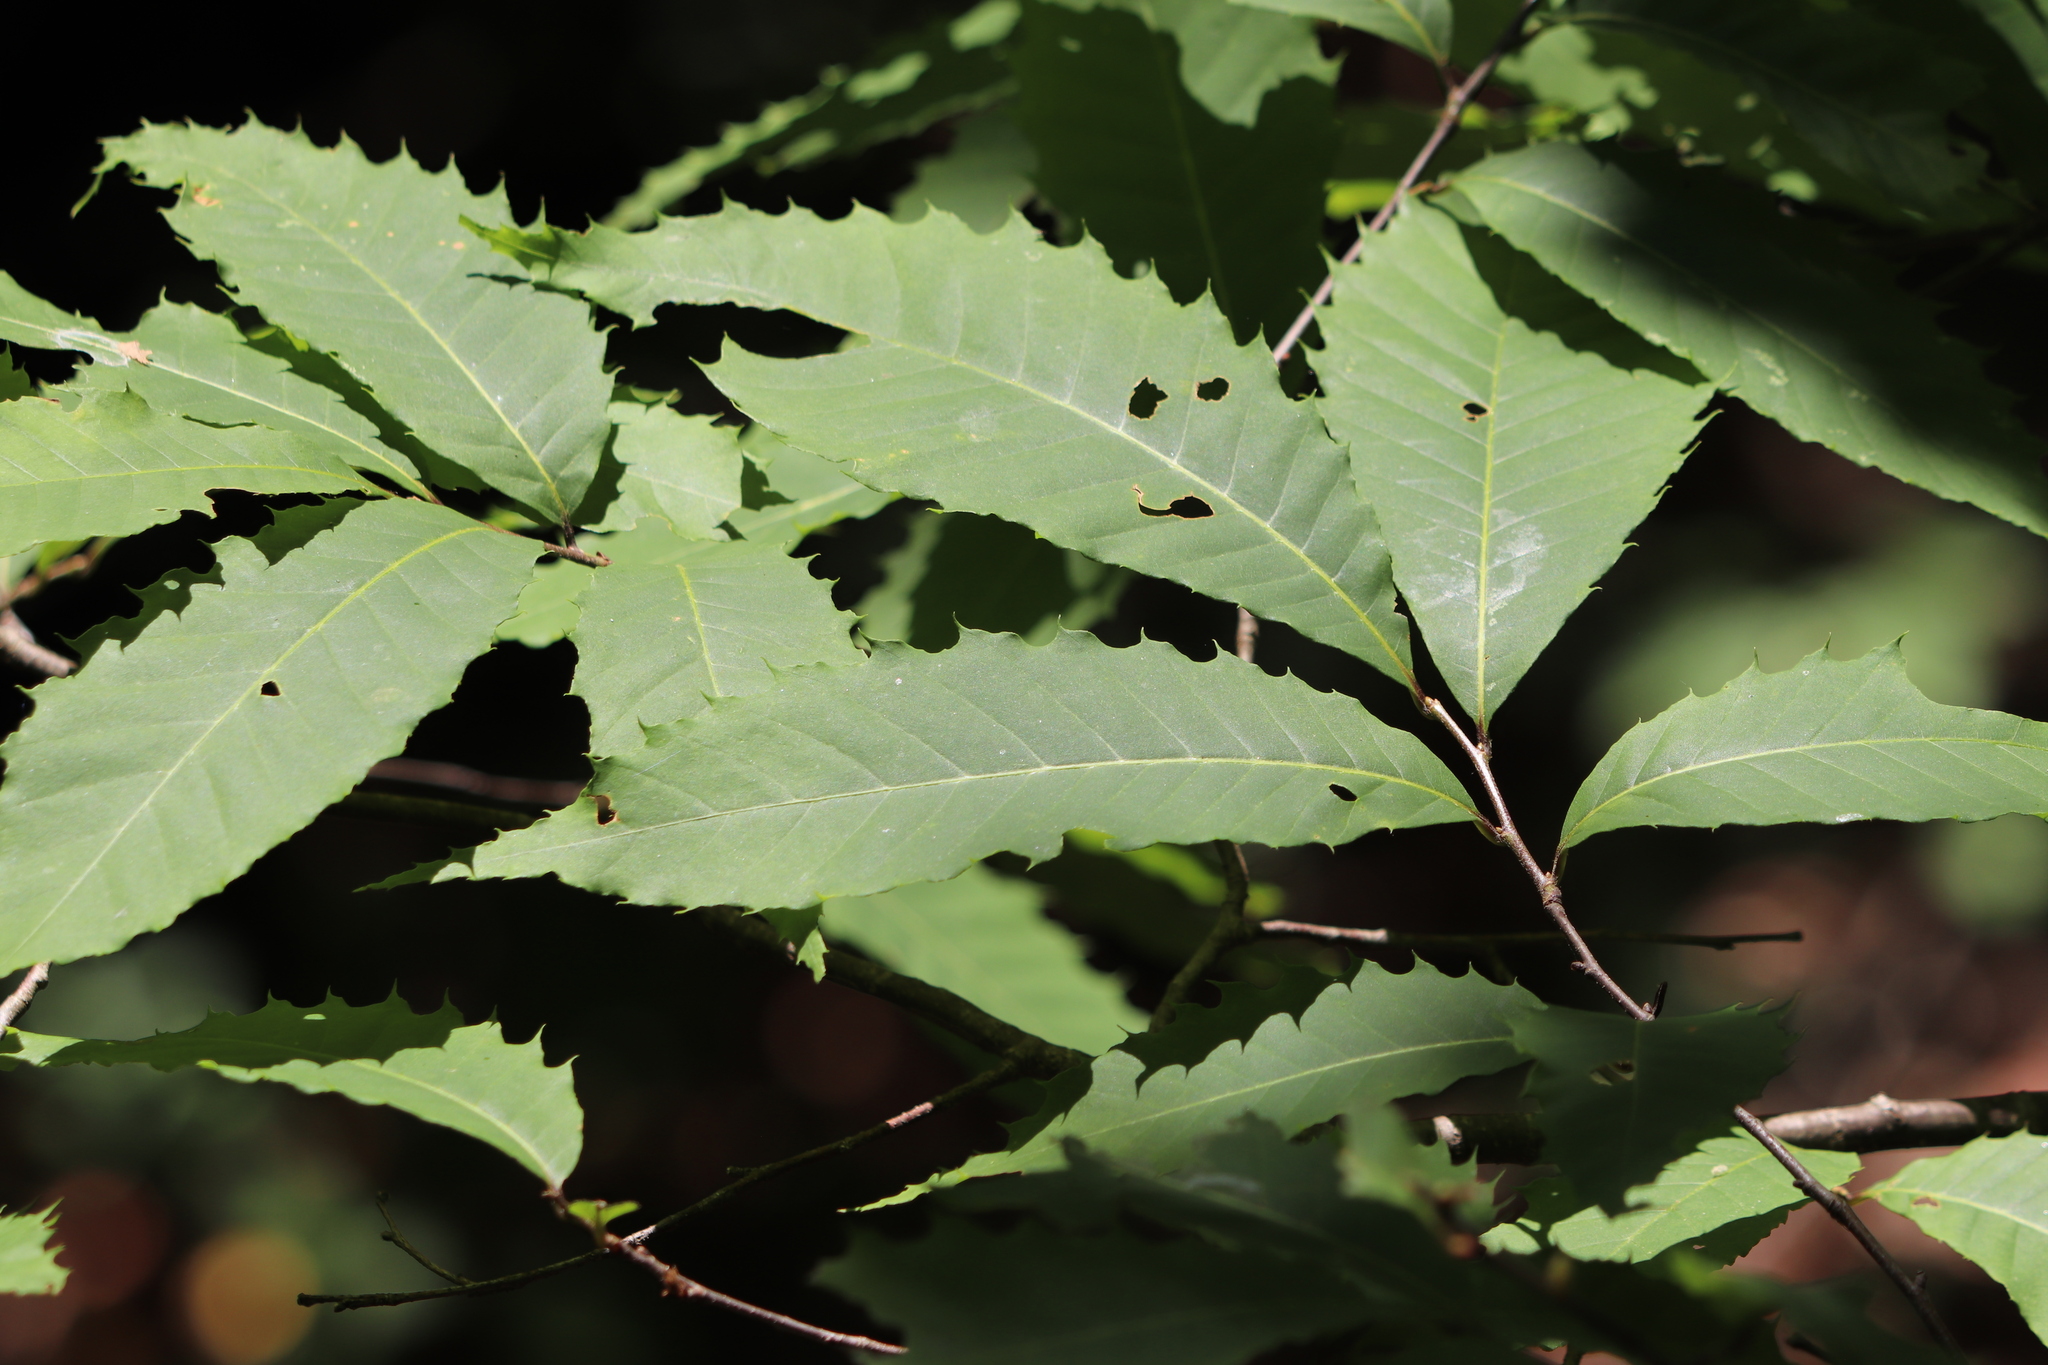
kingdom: Plantae
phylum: Tracheophyta
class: Magnoliopsida
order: Fagales
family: Fagaceae
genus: Castanea
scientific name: Castanea dentata
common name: American chestnut
